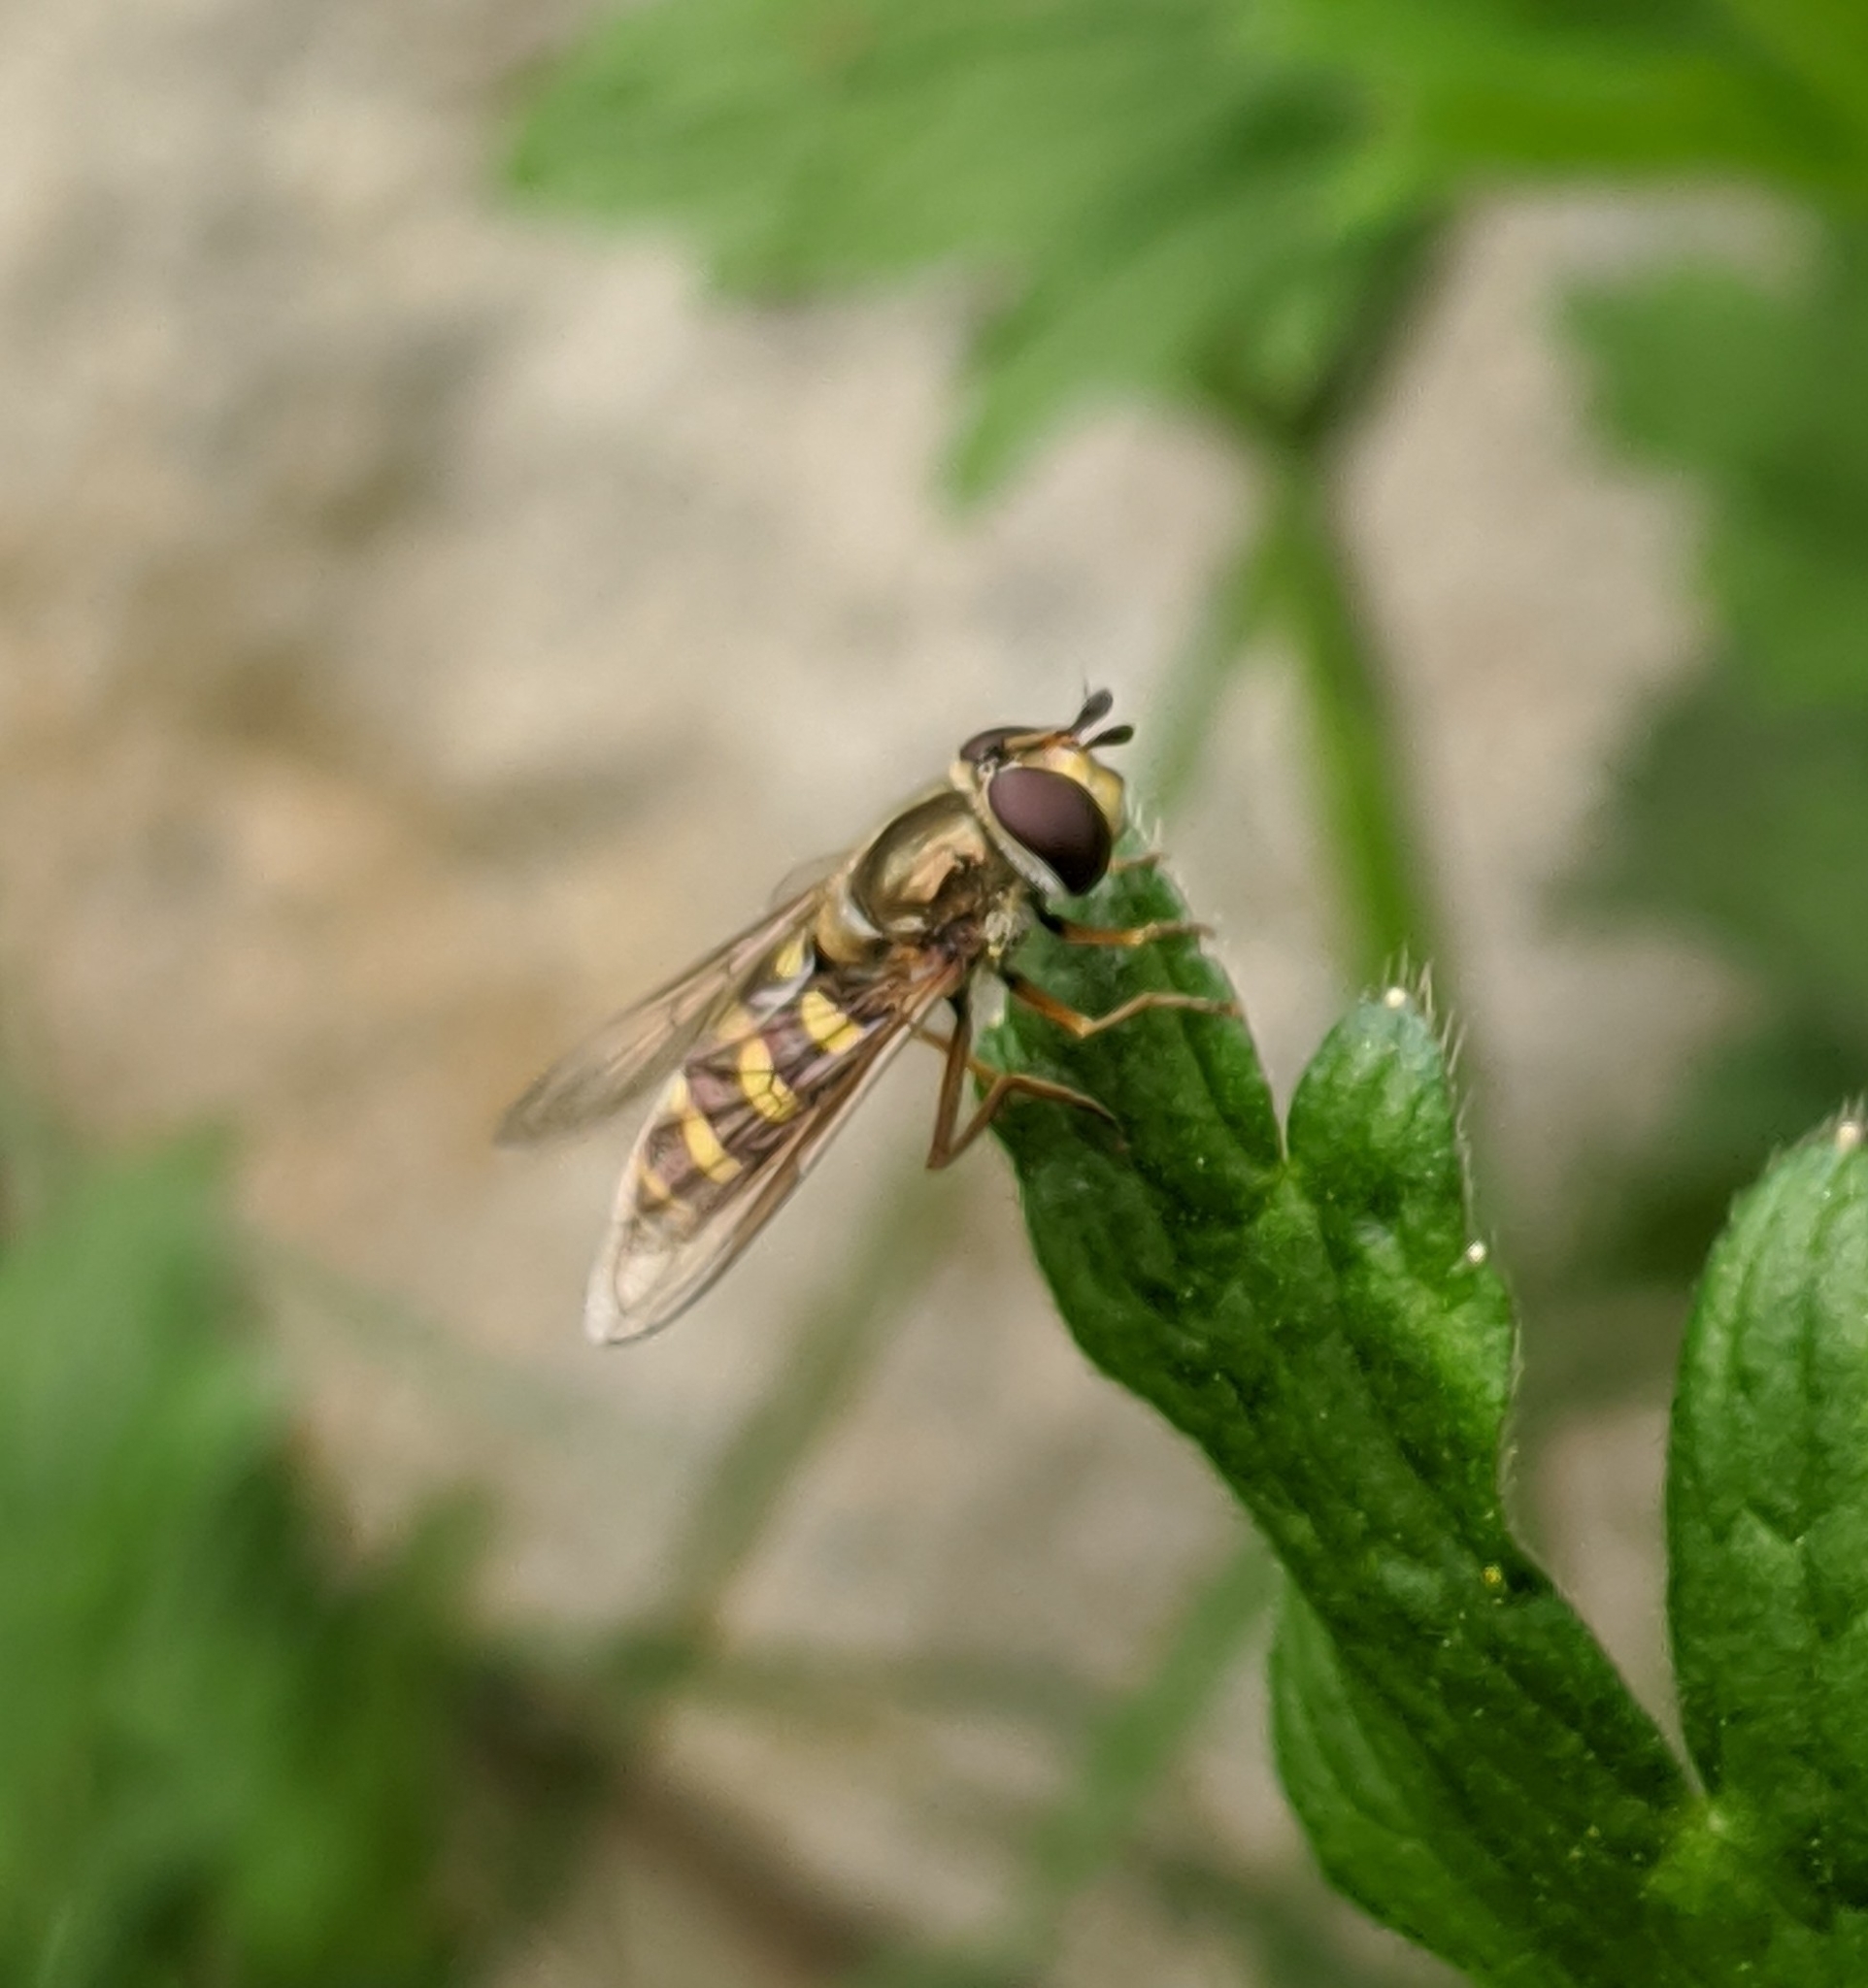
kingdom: Animalia
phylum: Arthropoda
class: Insecta
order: Diptera
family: Syrphidae
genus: Eupeodes
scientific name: Eupeodes fumipennis
